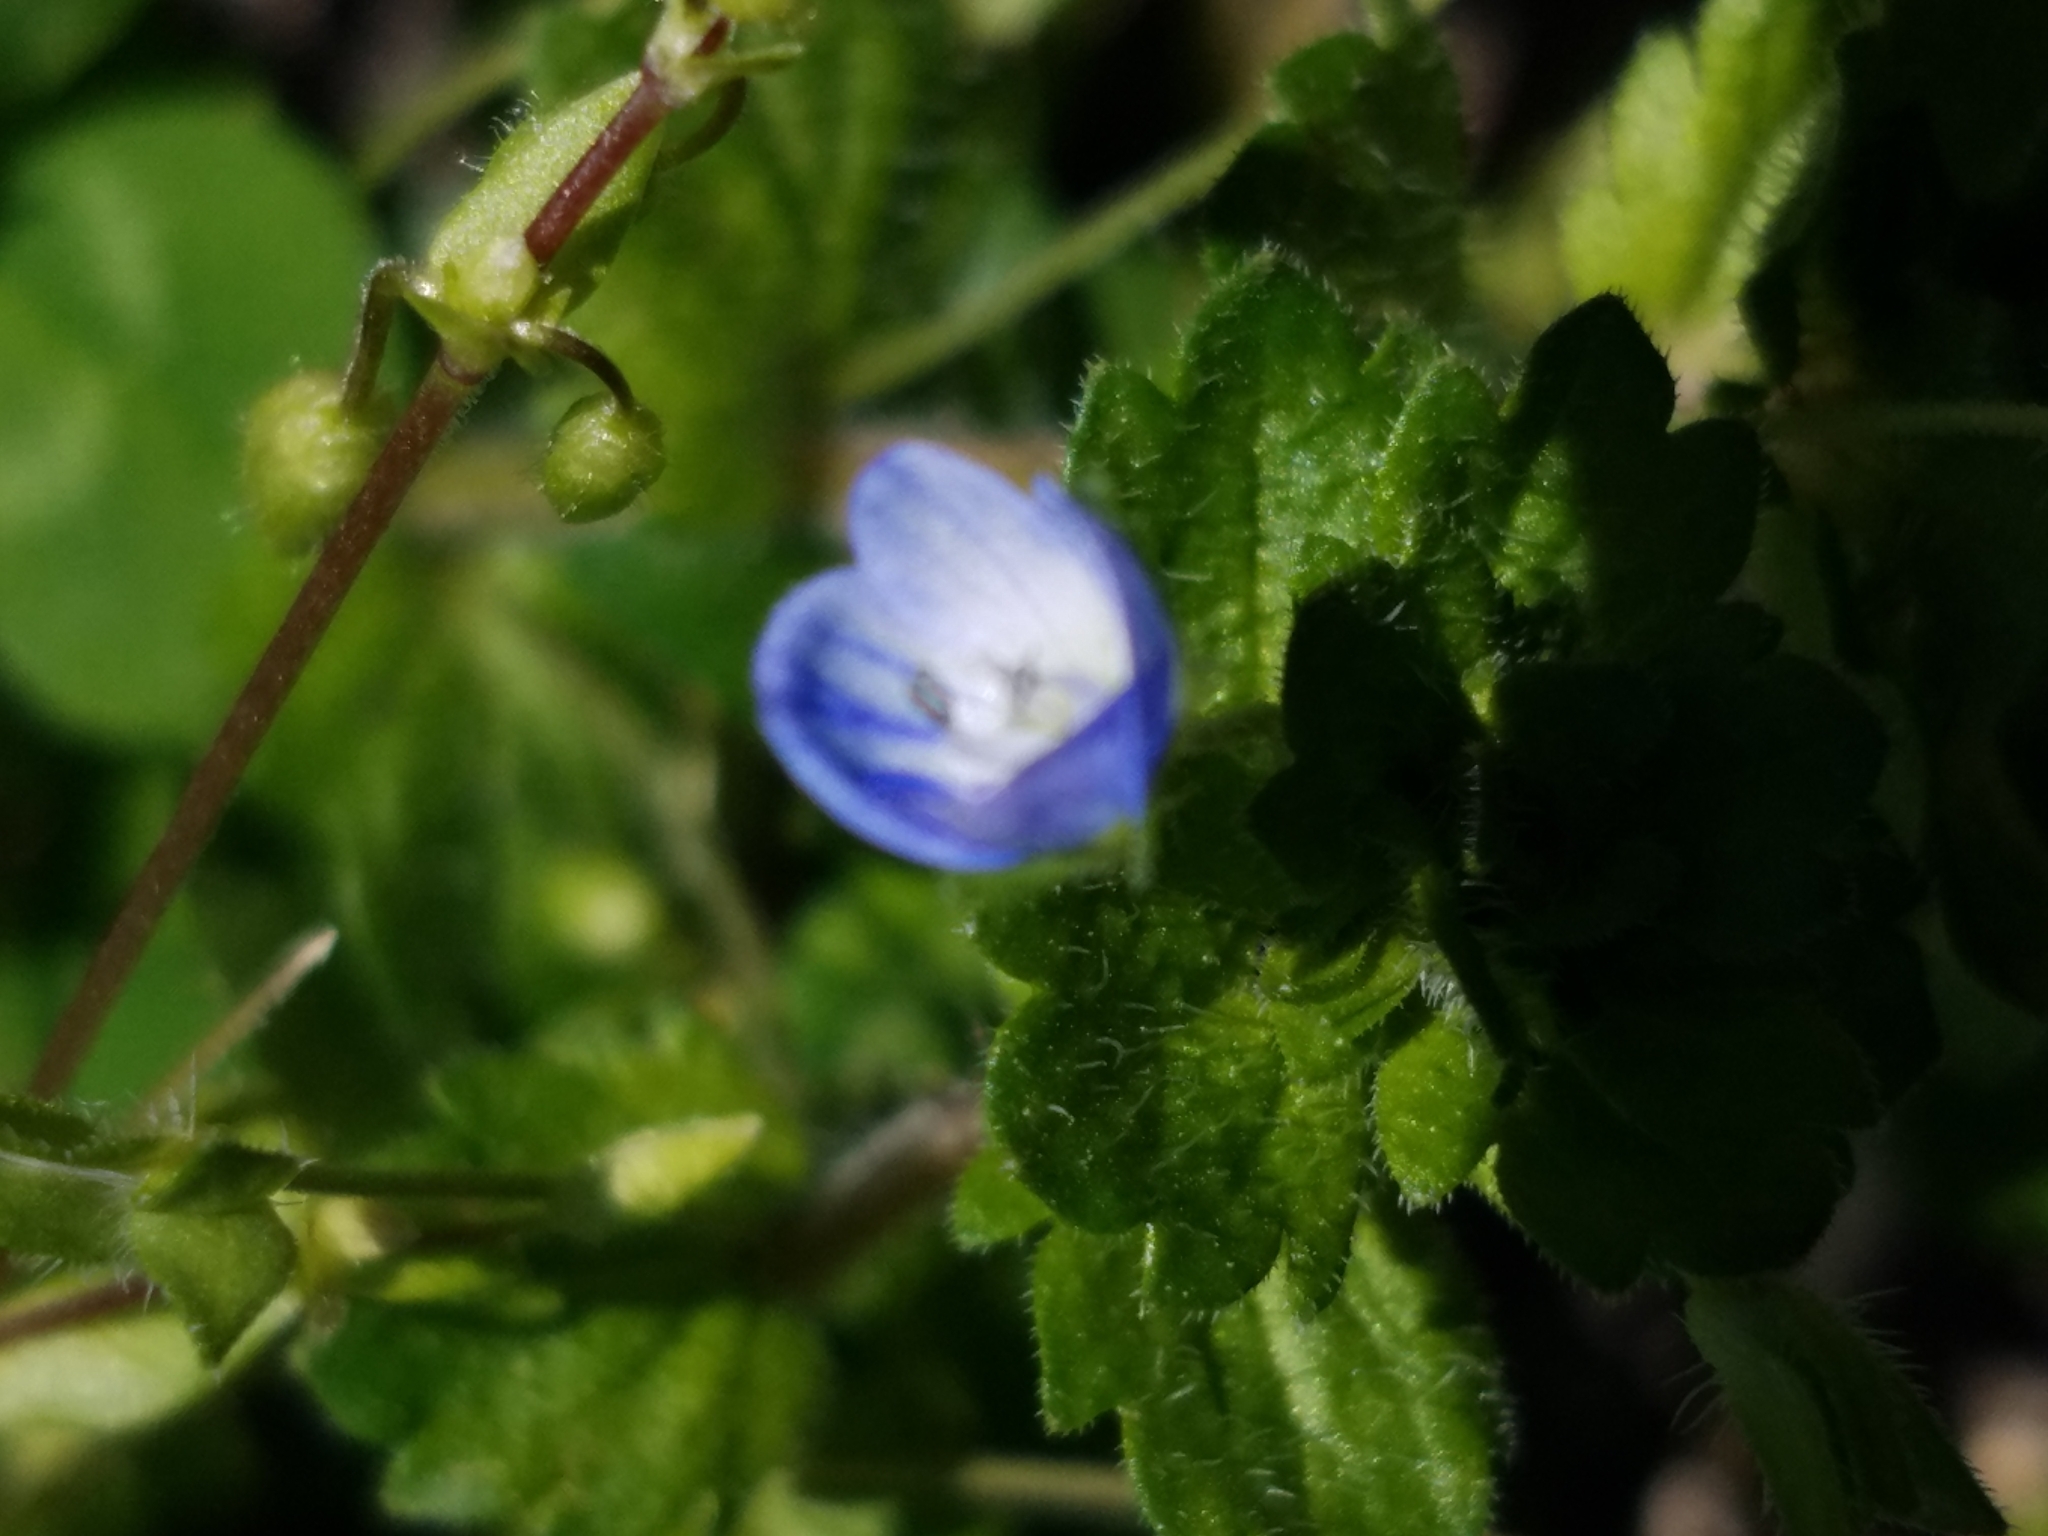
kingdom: Plantae
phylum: Tracheophyta
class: Magnoliopsida
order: Lamiales
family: Plantaginaceae
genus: Veronica
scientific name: Veronica persica
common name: Common field-speedwell
